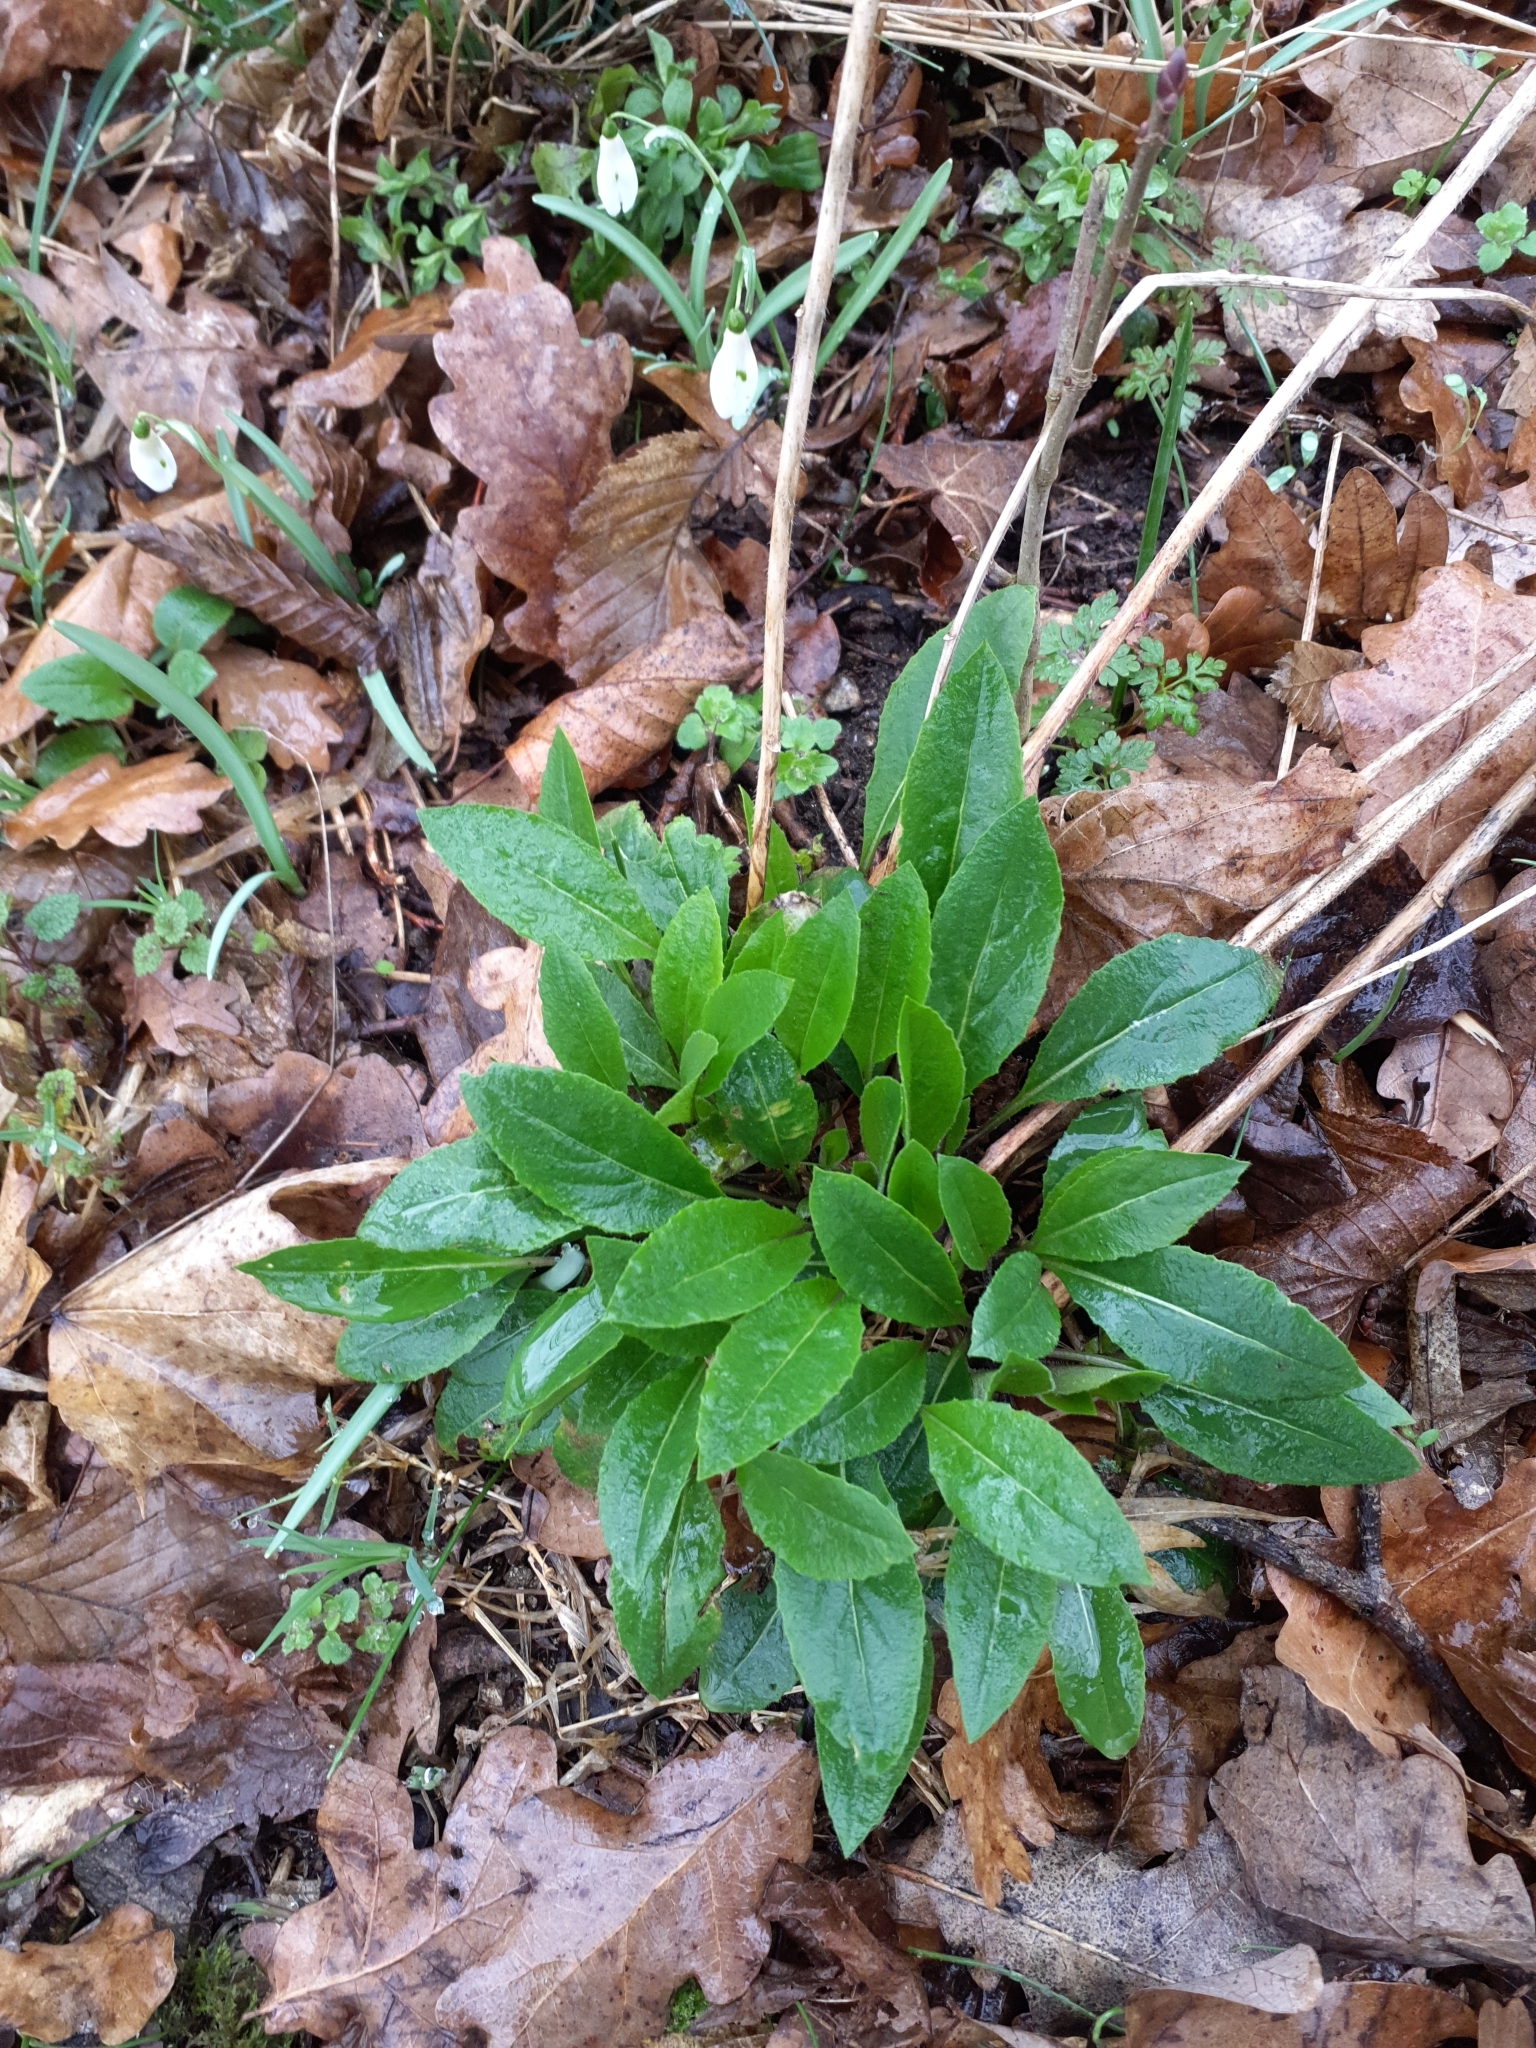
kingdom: Plantae
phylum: Tracheophyta
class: Magnoliopsida
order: Brassicales
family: Brassicaceae
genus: Hesperis
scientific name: Hesperis matronalis
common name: Dame's-violet
